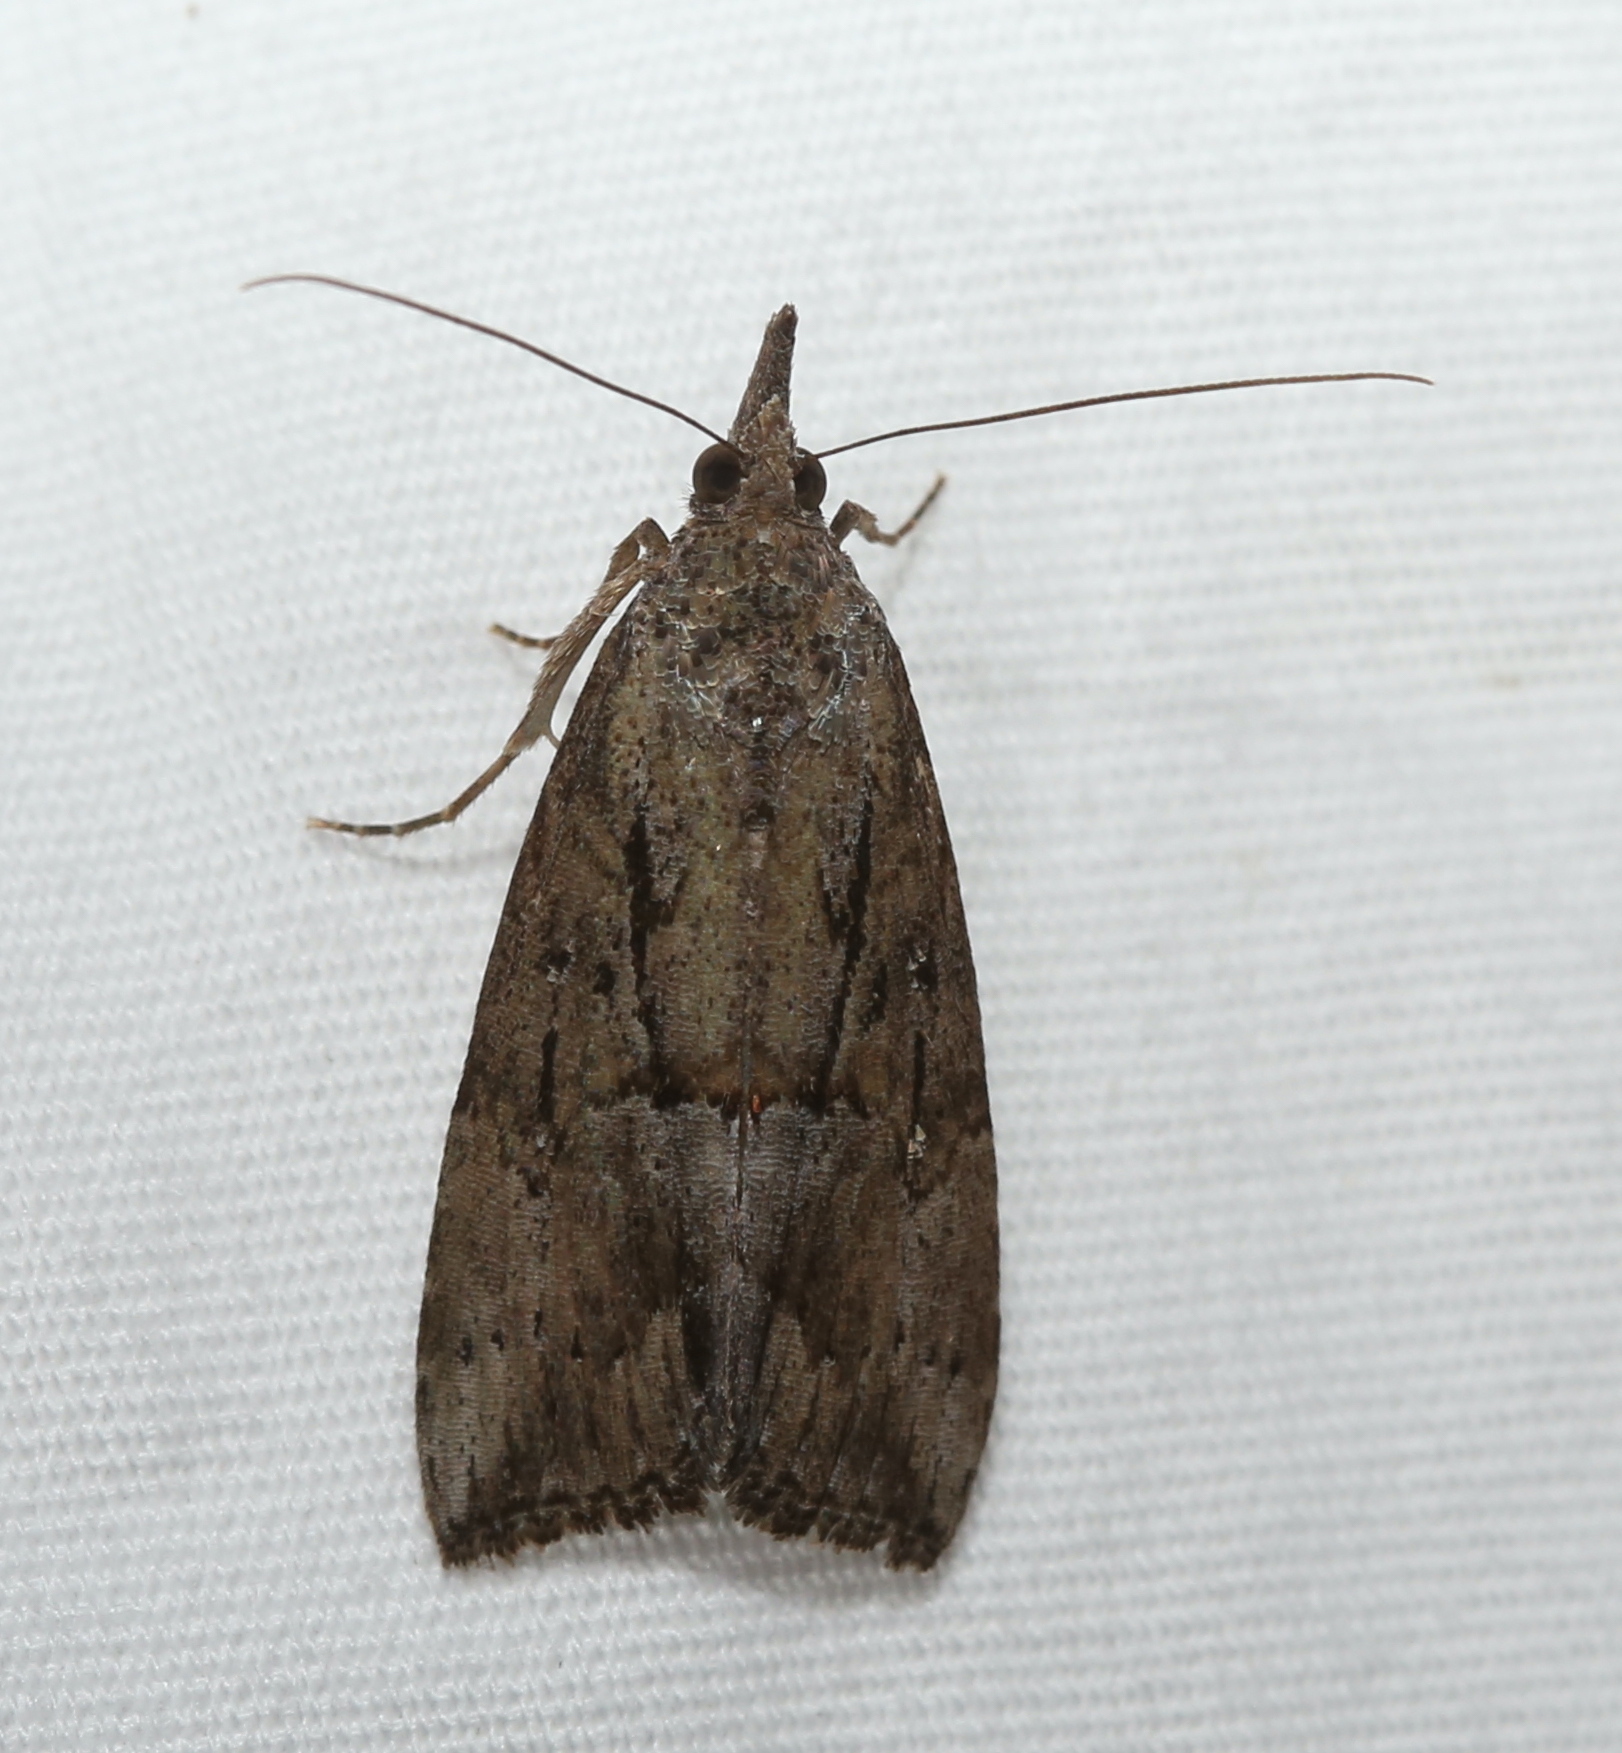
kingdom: Animalia
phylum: Arthropoda
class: Insecta
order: Lepidoptera
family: Erebidae
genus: Hypena
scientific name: Hypena scabra
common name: Green cloverworm
